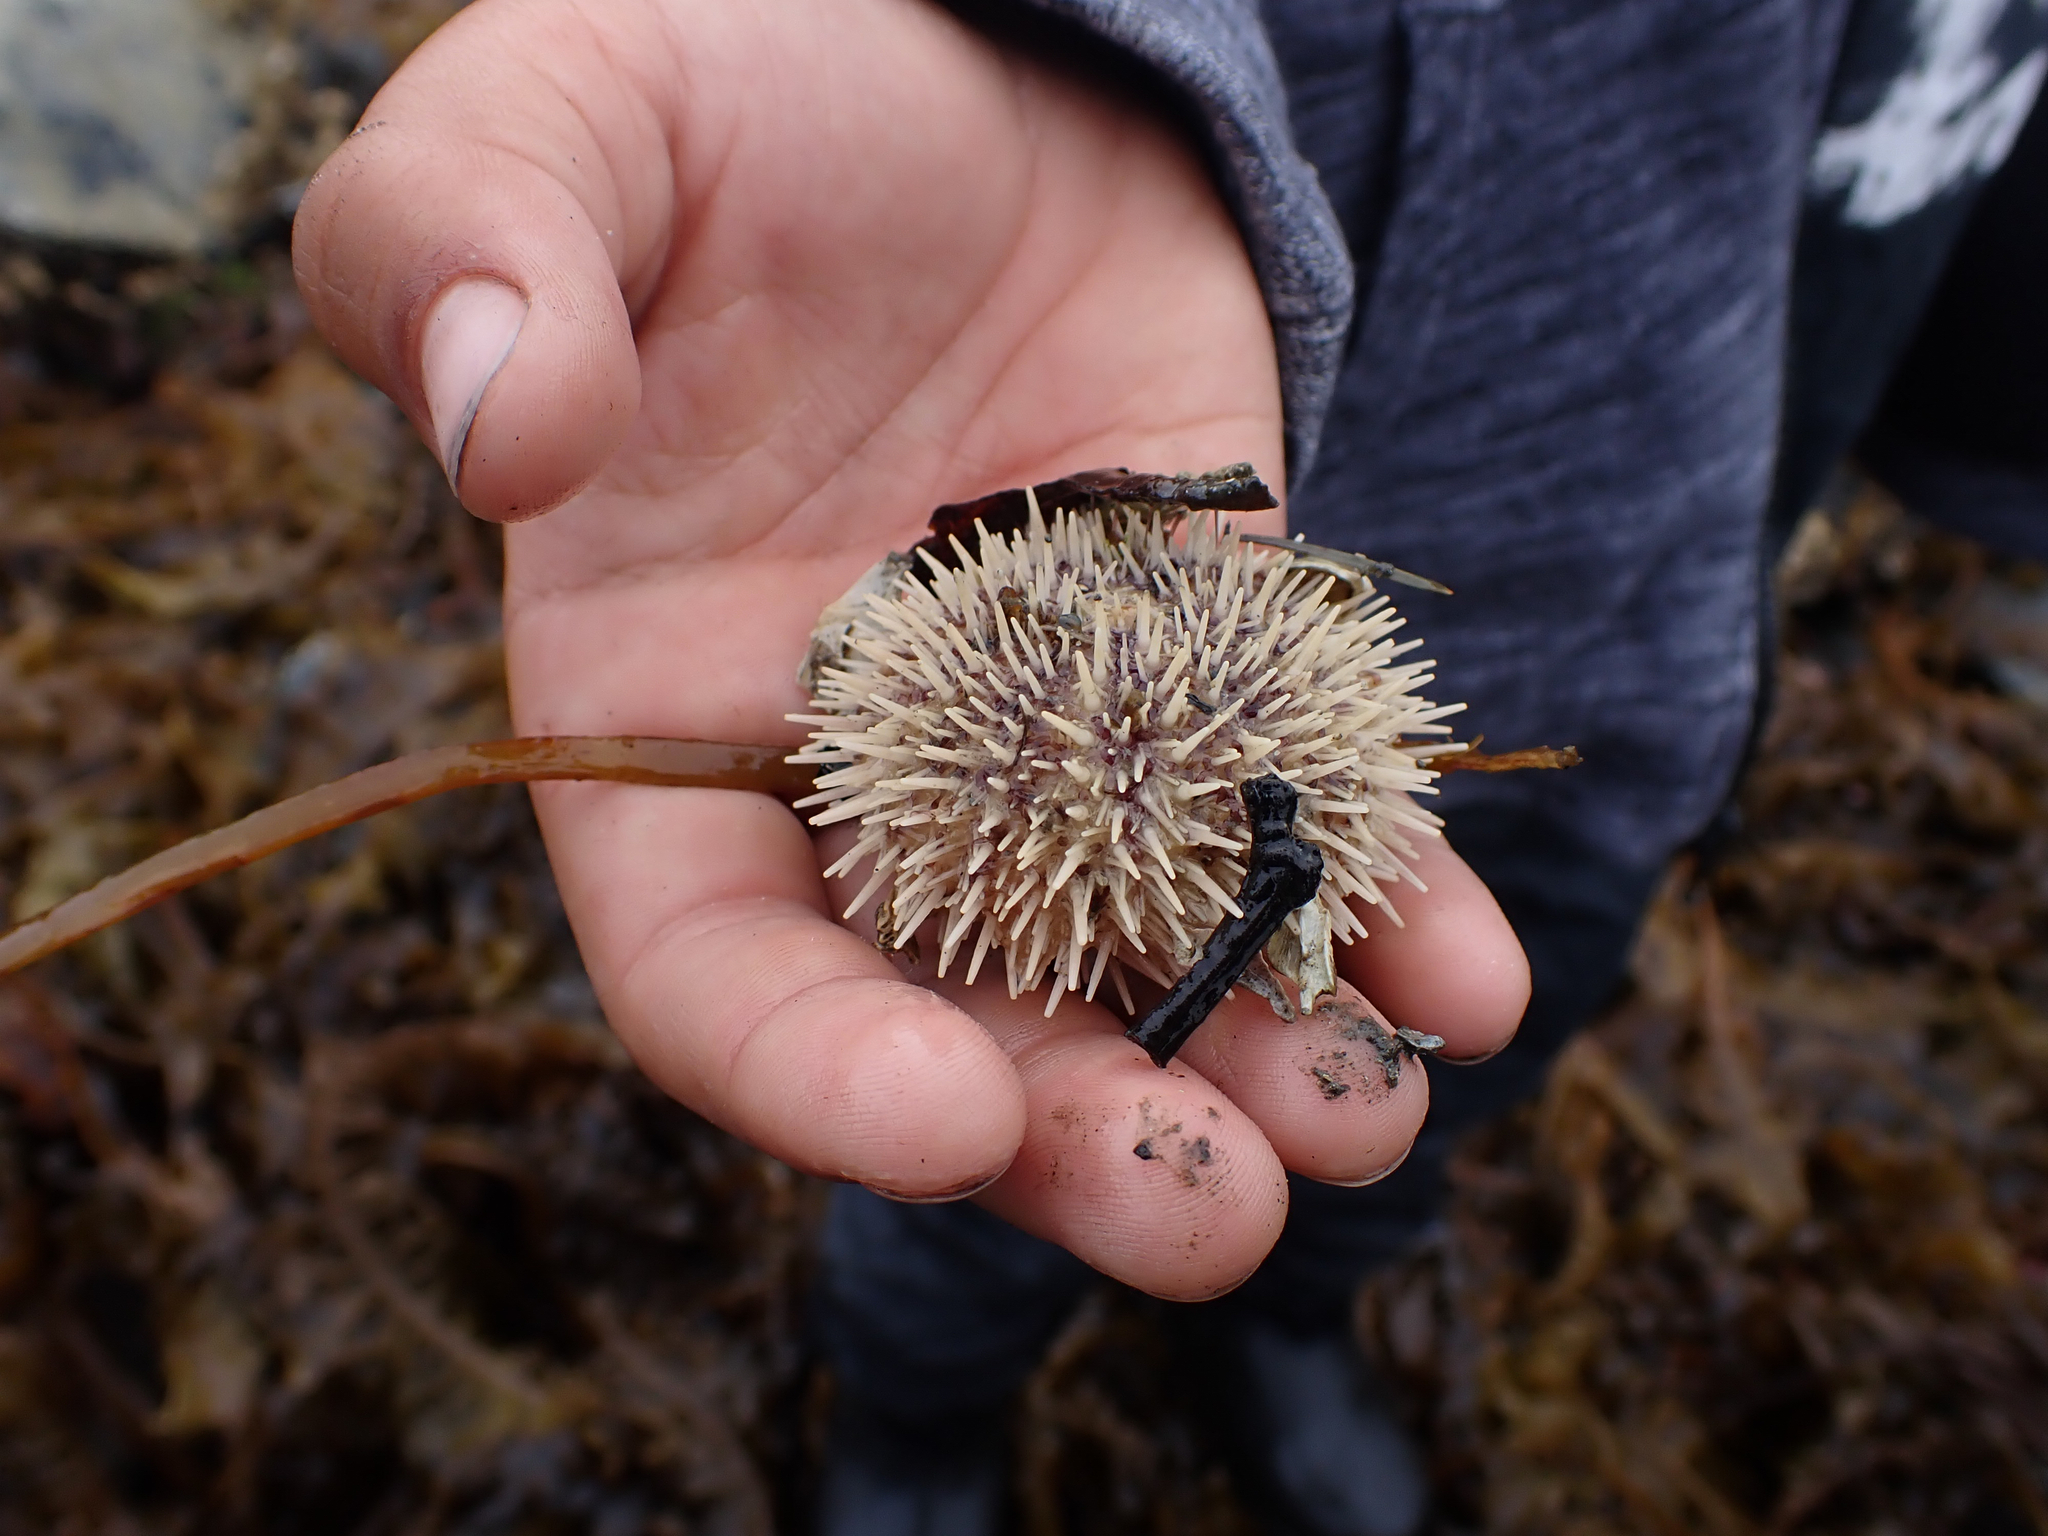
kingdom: Animalia
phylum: Echinodermata
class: Echinoidea
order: Camarodonta
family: Strongylocentrotidae
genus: Strongylocentrotus
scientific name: Strongylocentrotus droebachiensis
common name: Northern sea urchin
